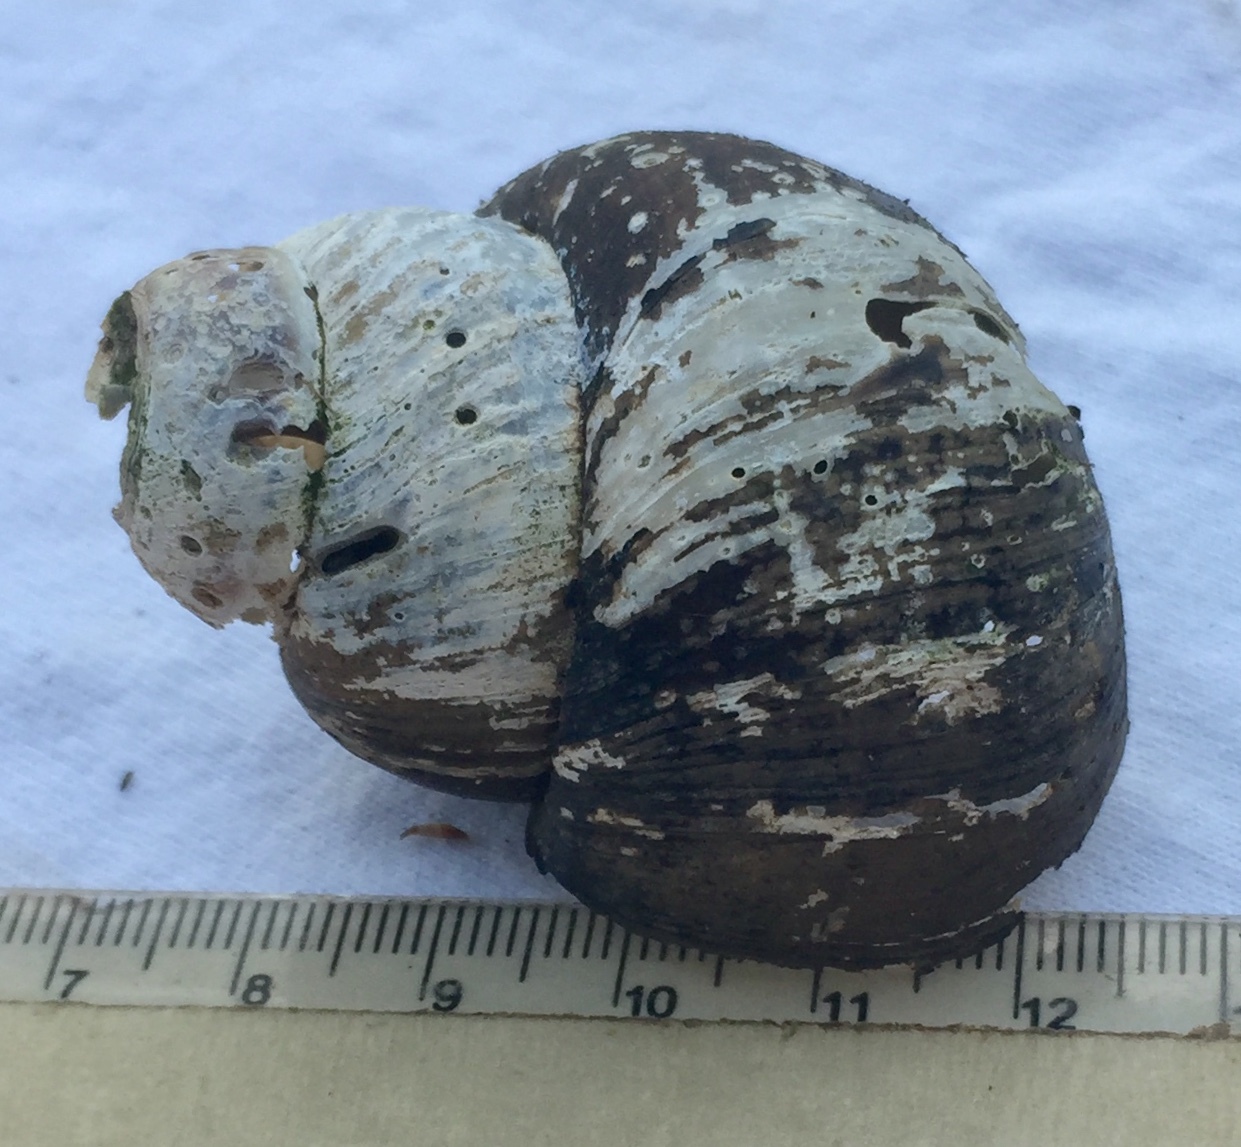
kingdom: Animalia
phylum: Mollusca
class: Gastropoda
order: Architaenioglossa
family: Viviparidae
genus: Cipangopaludina
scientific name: Cipangopaludina chinensis
